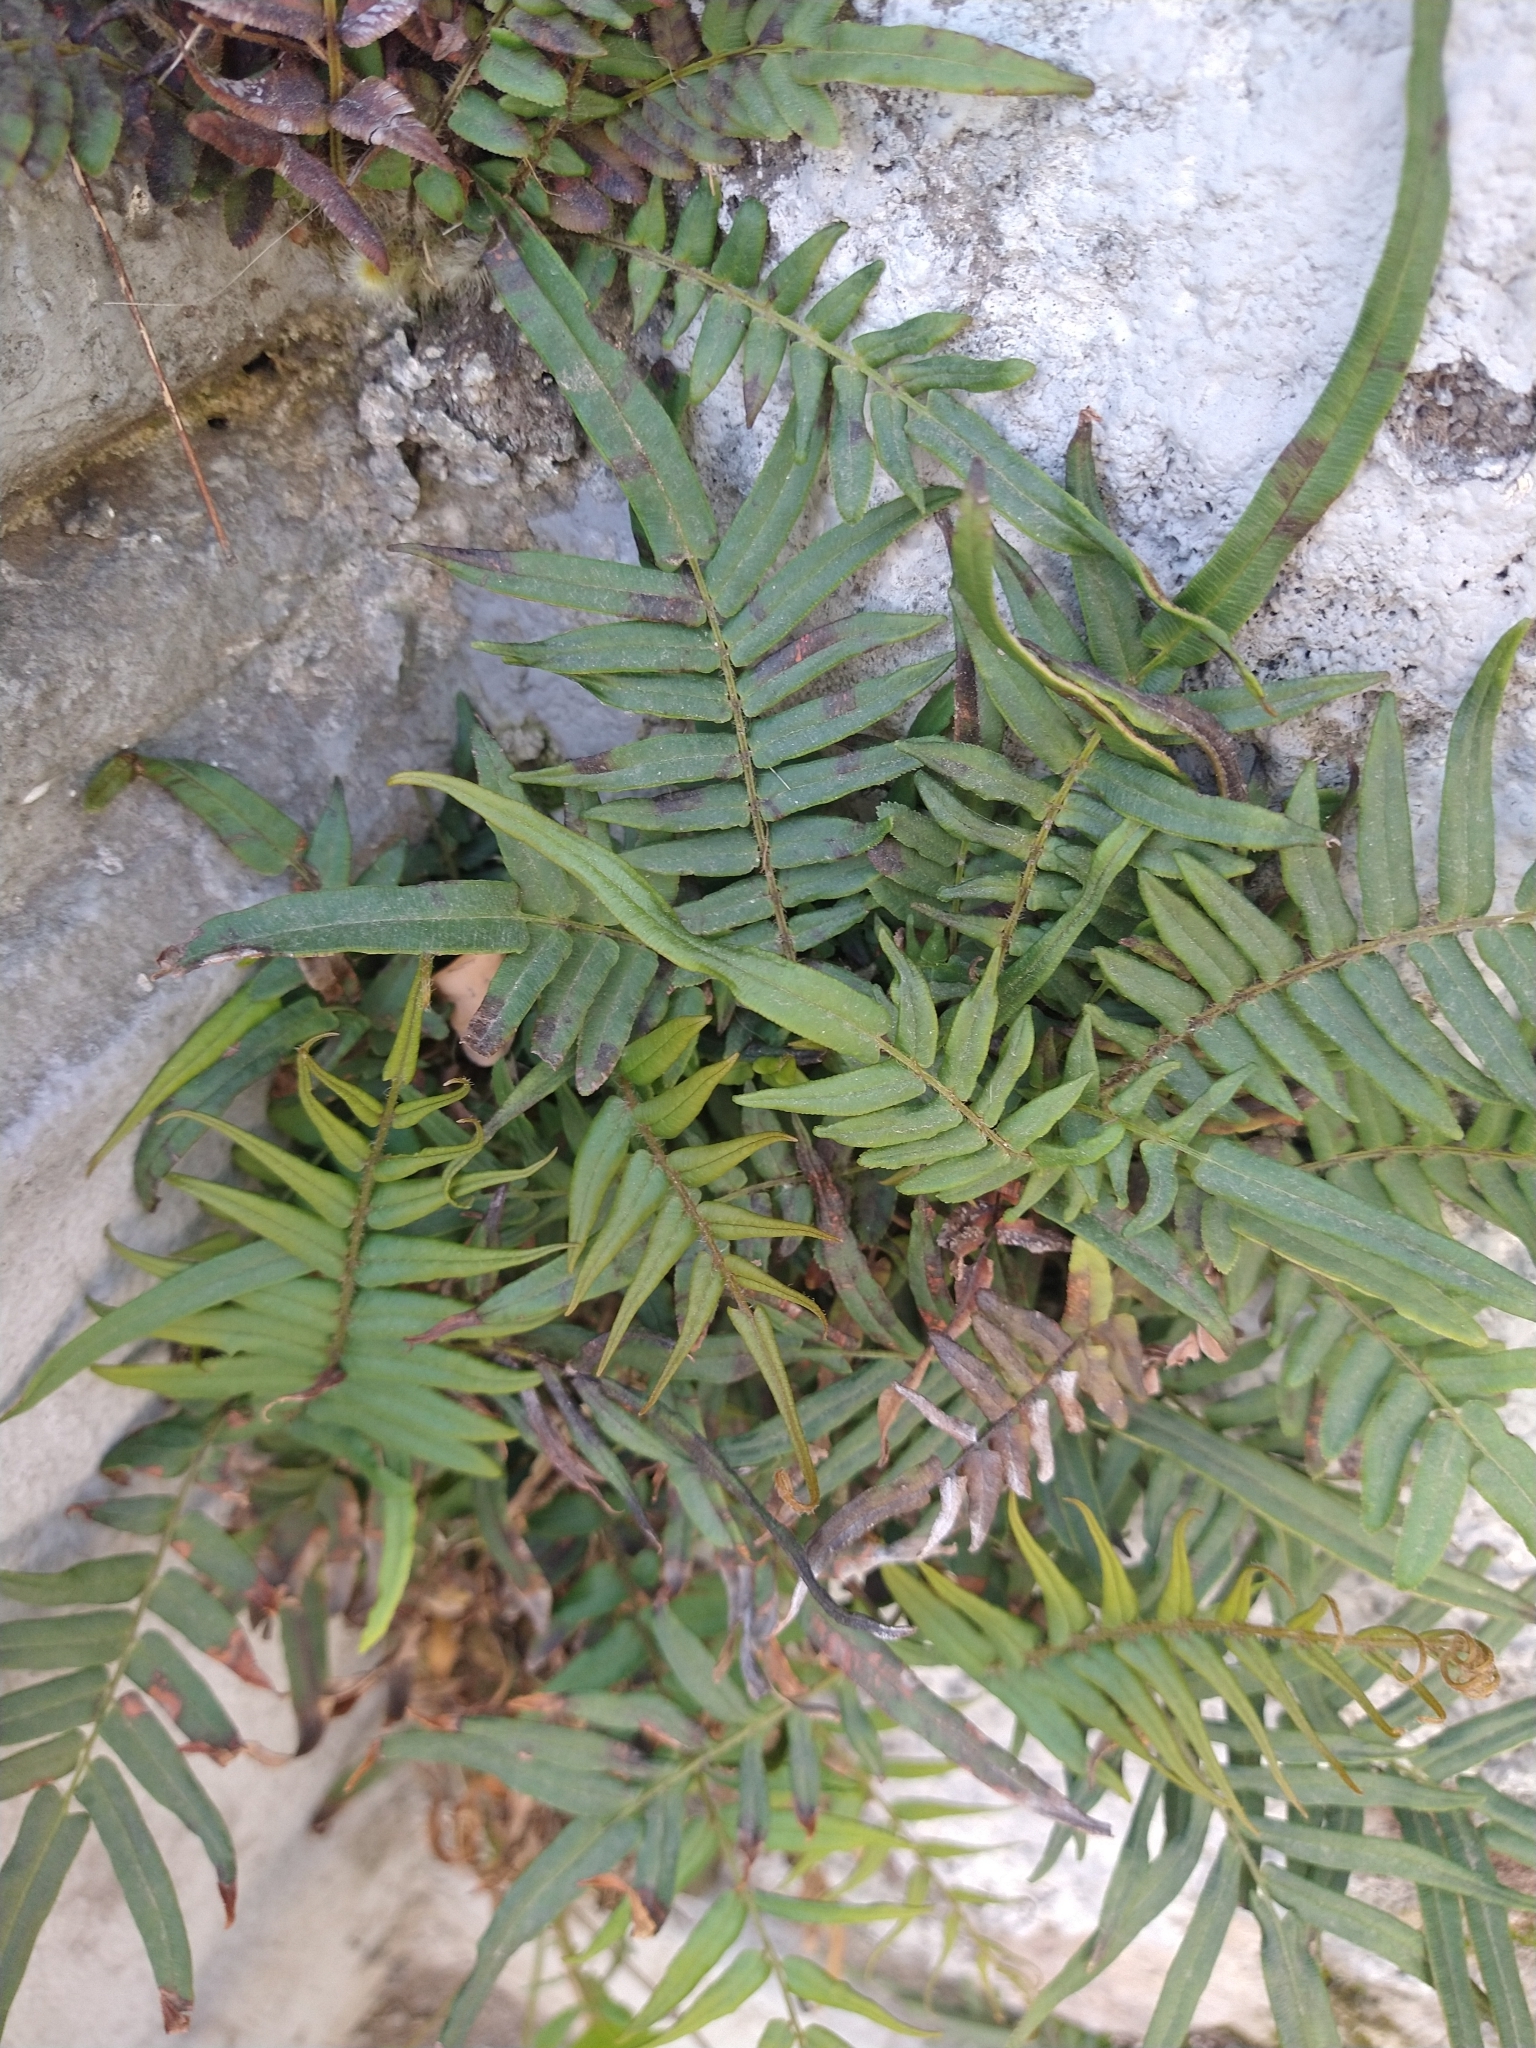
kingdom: Plantae
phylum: Tracheophyta
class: Polypodiopsida
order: Polypodiales
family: Pteridaceae
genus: Pteris
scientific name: Pteris vittata
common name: Ladder brake
